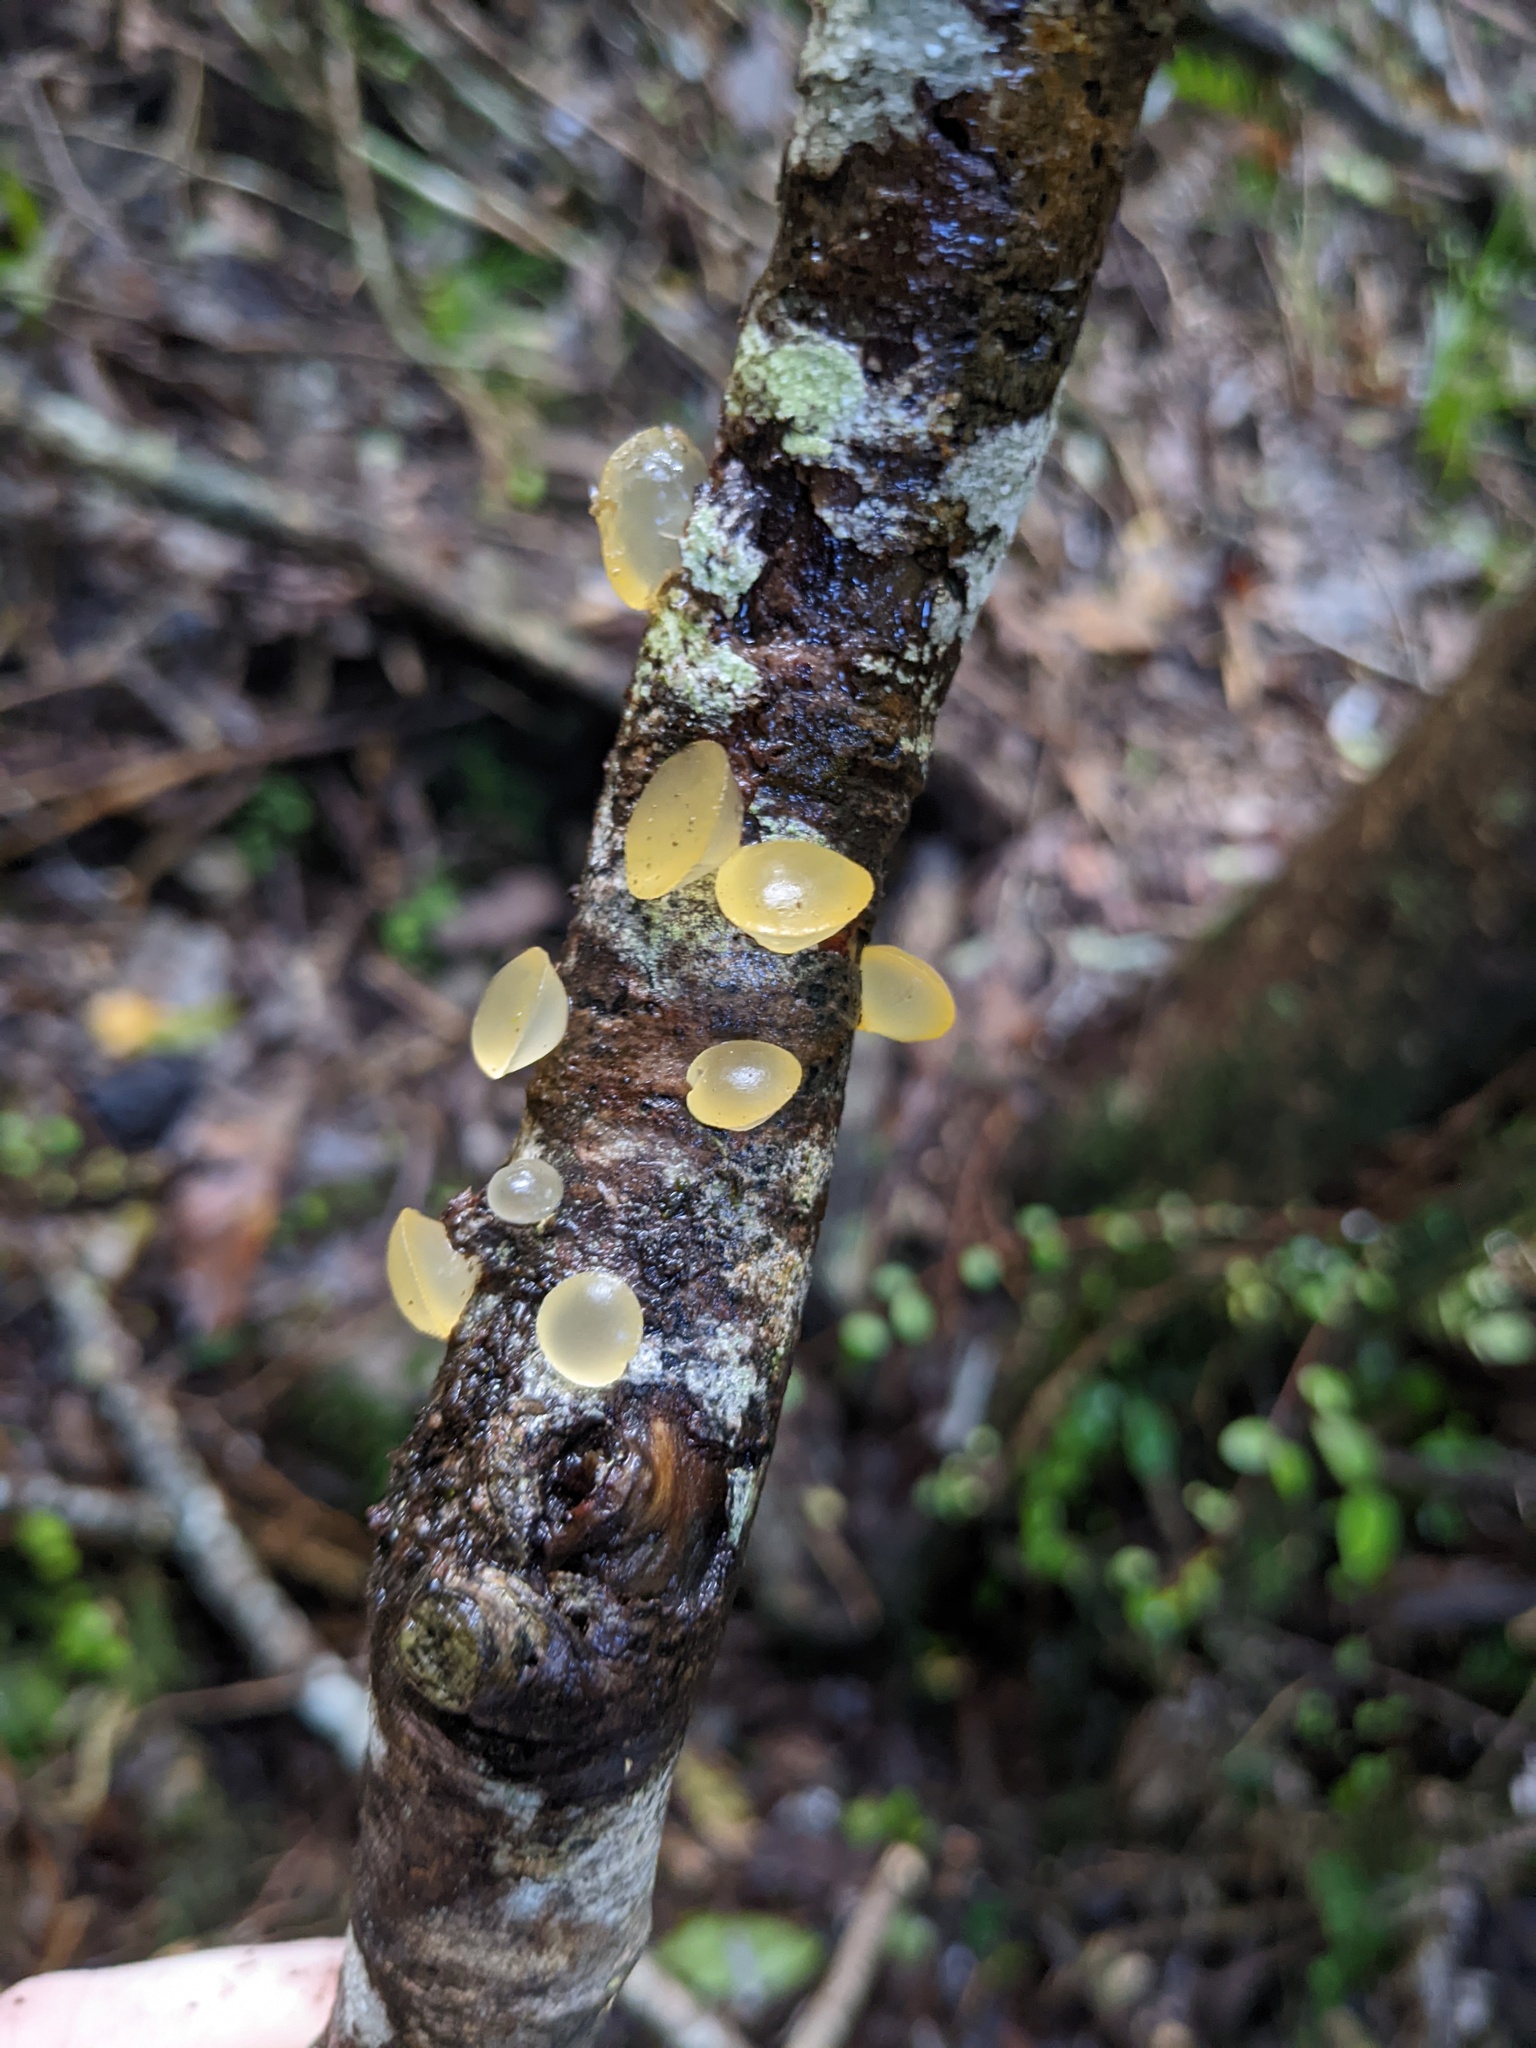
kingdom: Fungi
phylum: Basidiomycota
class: Dacrymycetes
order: Dacrymycetales
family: Dacrymycetaceae
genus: Heterotextus
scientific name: Heterotextus miltinus
